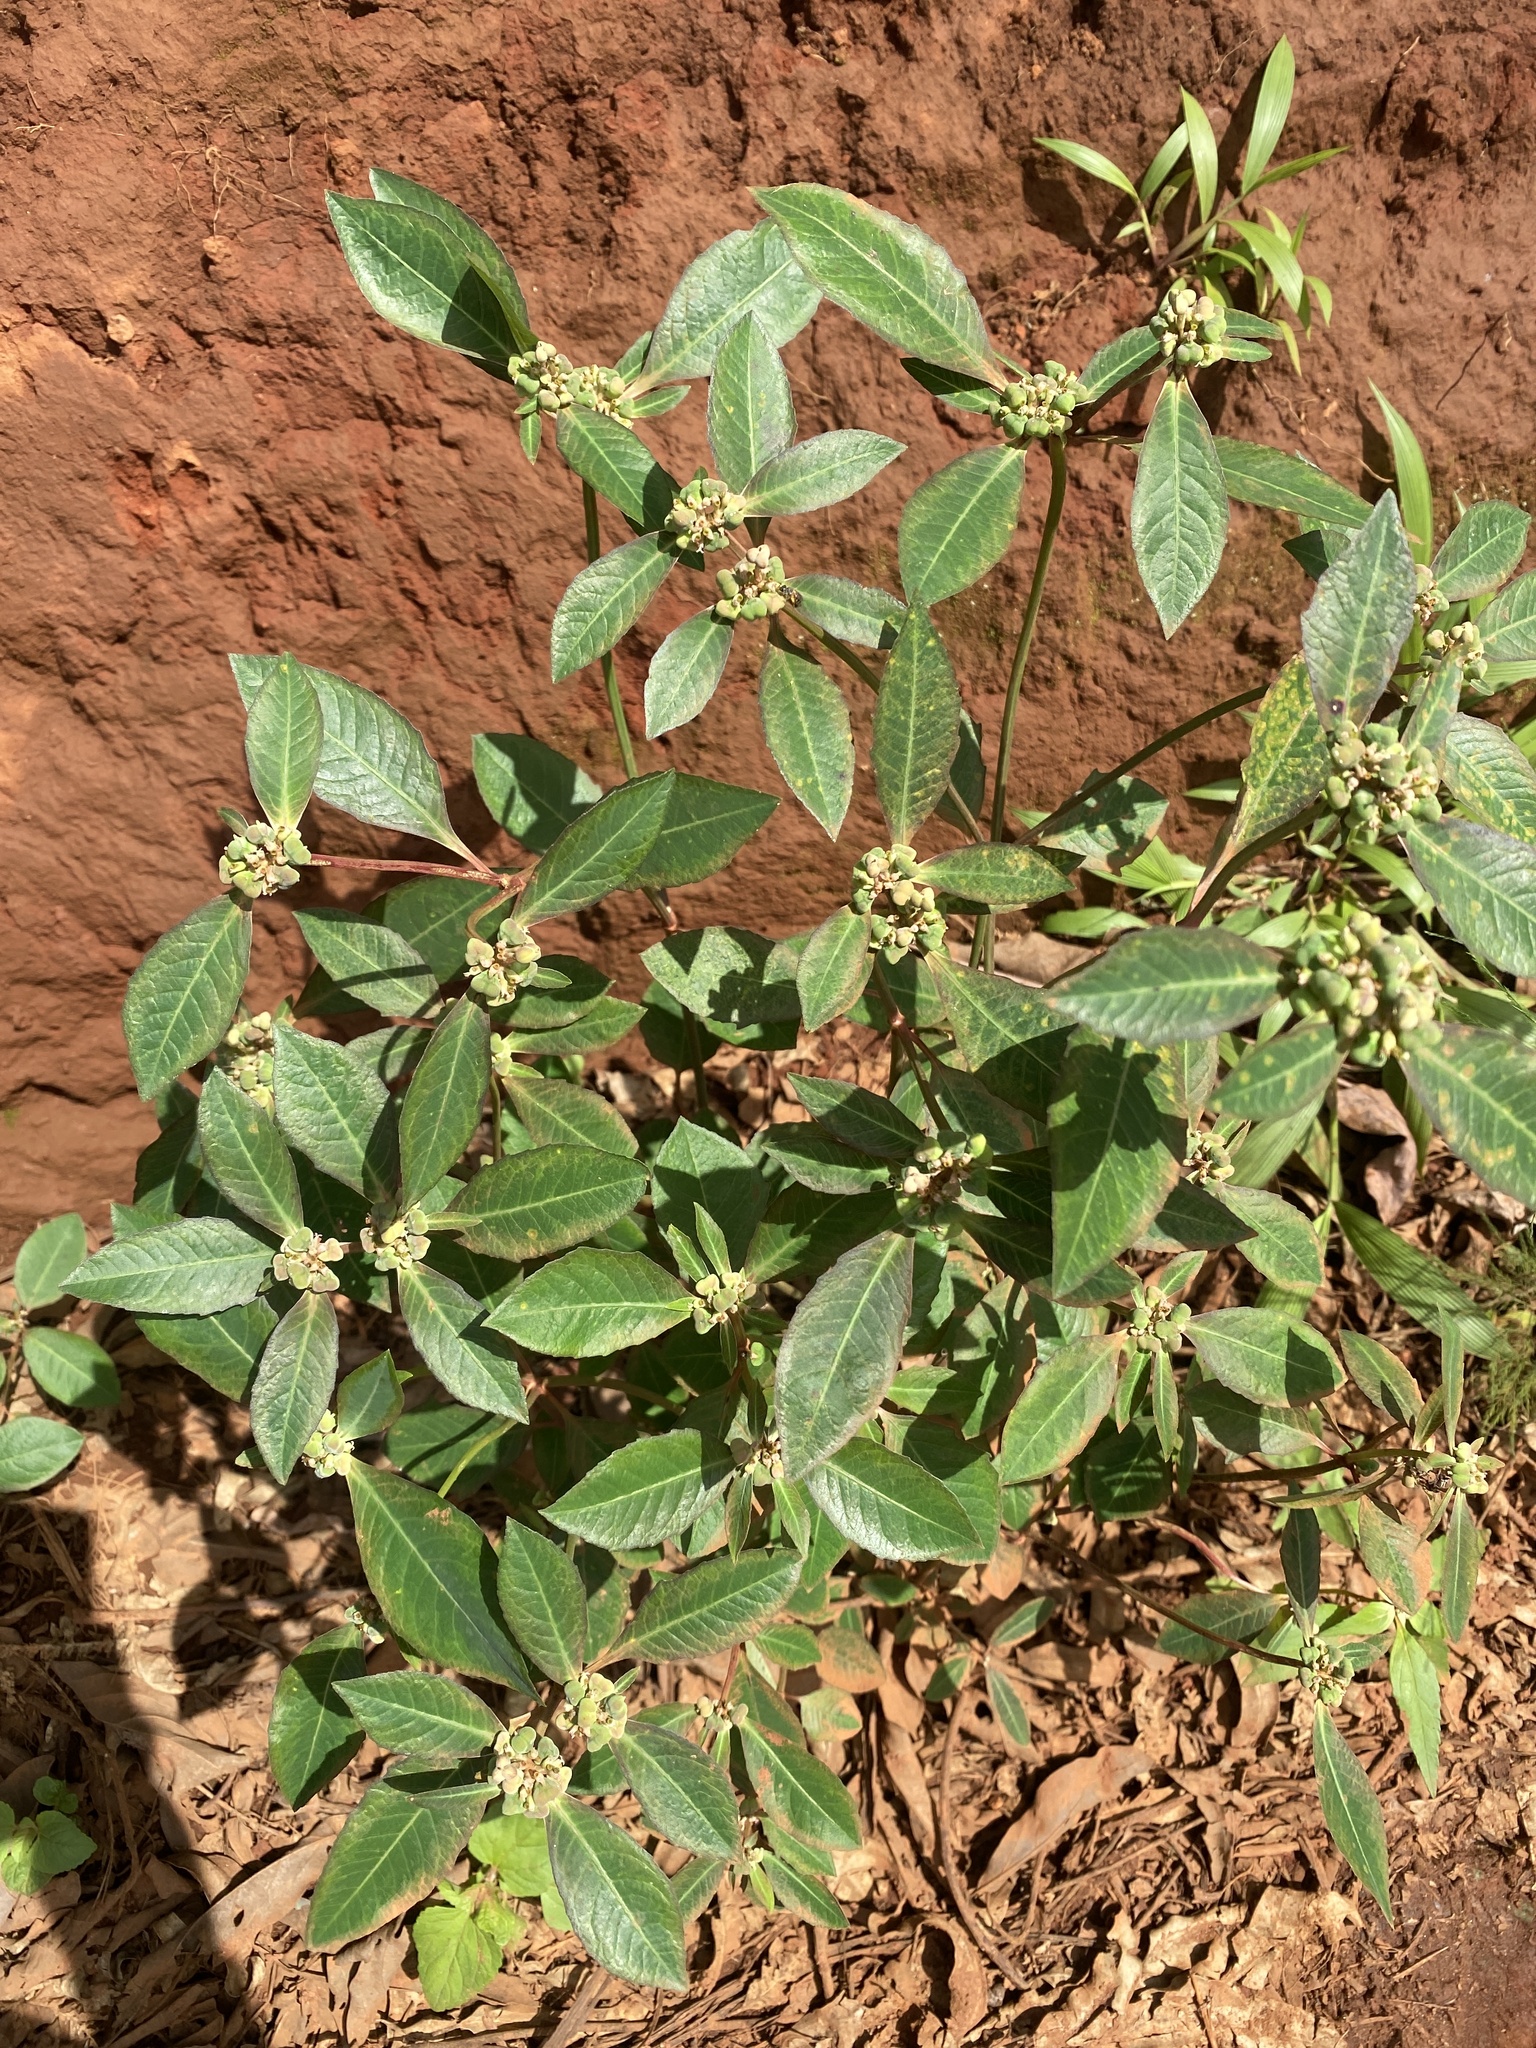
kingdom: Plantae
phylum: Tracheophyta
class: Magnoliopsida
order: Malpighiales
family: Euphorbiaceae
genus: Euphorbia
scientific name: Euphorbia heterophylla
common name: Mexican fireplant
